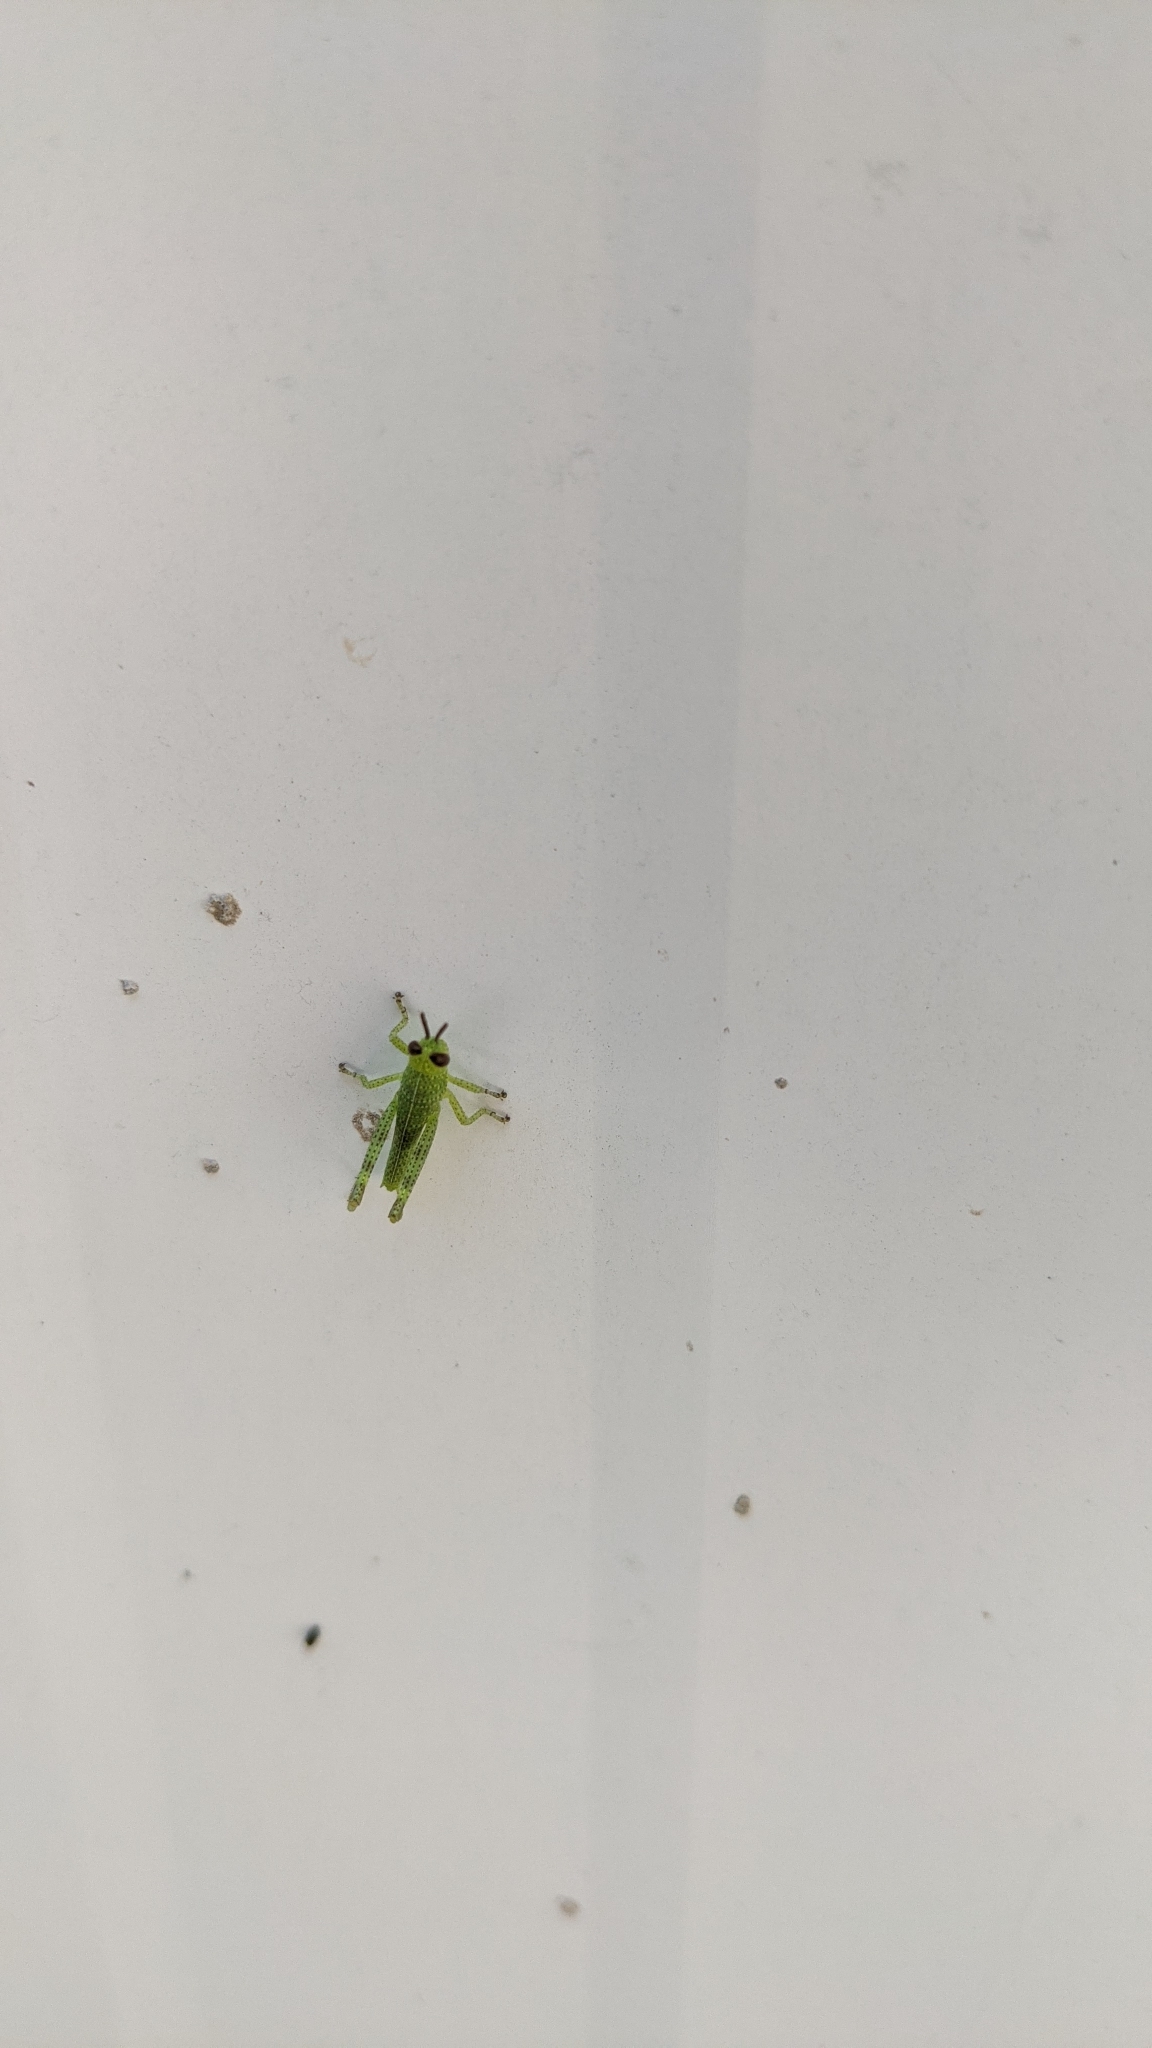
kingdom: Animalia
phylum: Arthropoda
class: Insecta
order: Orthoptera
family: Acrididae
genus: Valanga
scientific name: Valanga irregularis
